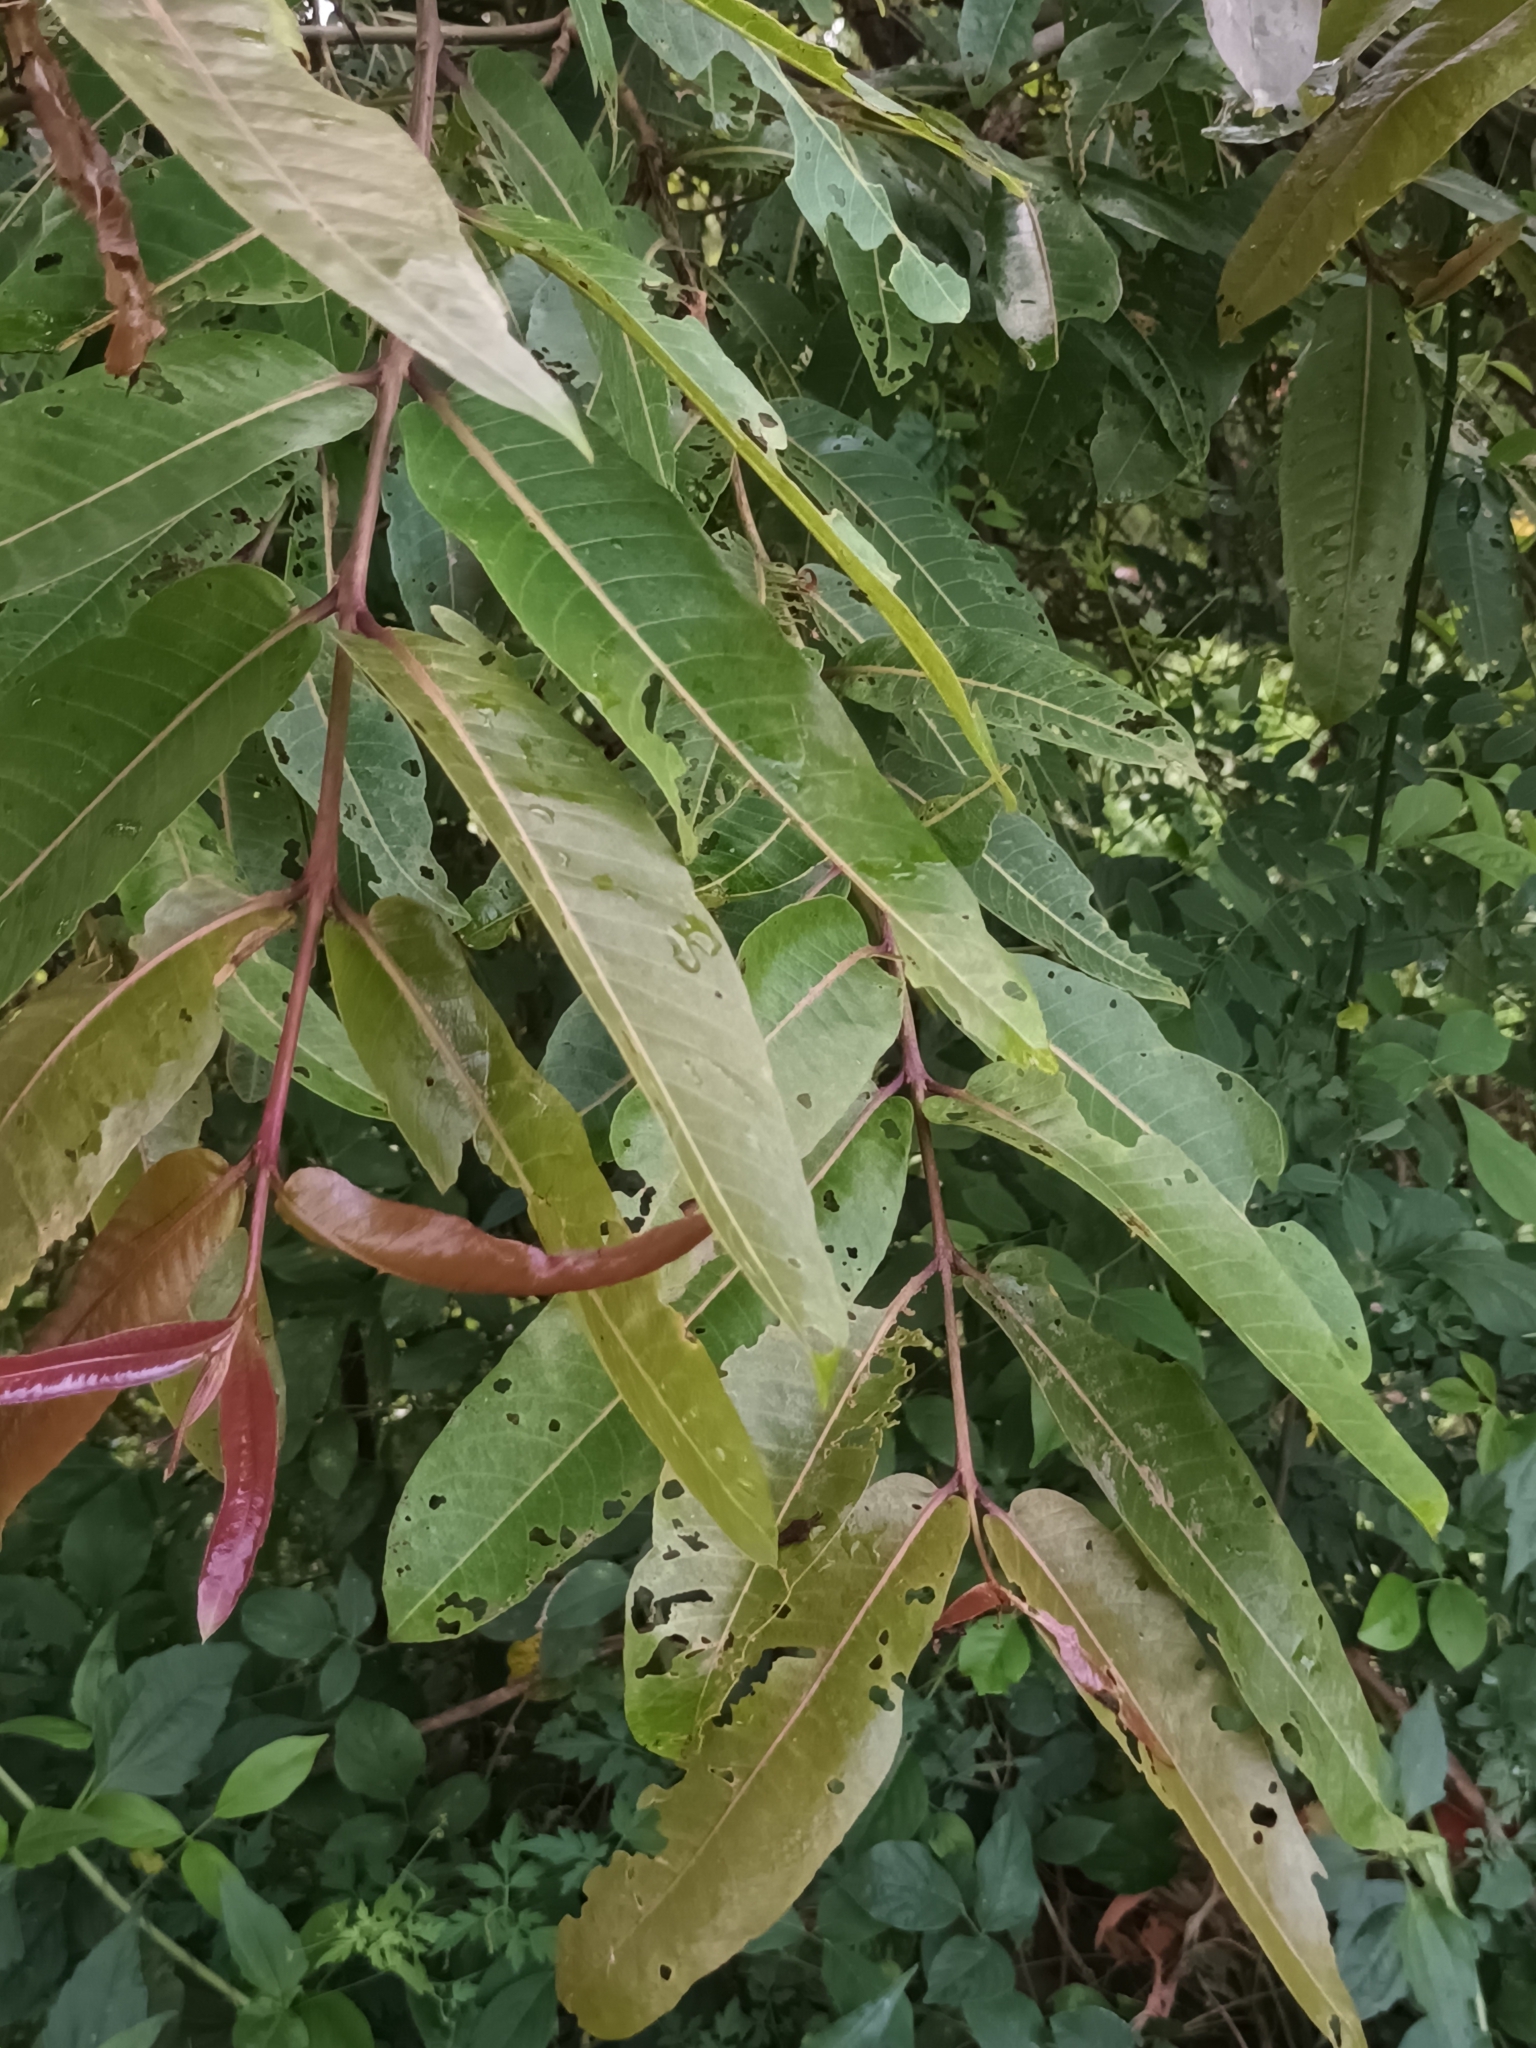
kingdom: Plantae
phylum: Tracheophyta
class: Magnoliopsida
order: Myrtales
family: Combretaceae
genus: Terminalia
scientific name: Terminalia arjuna
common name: Arjun
